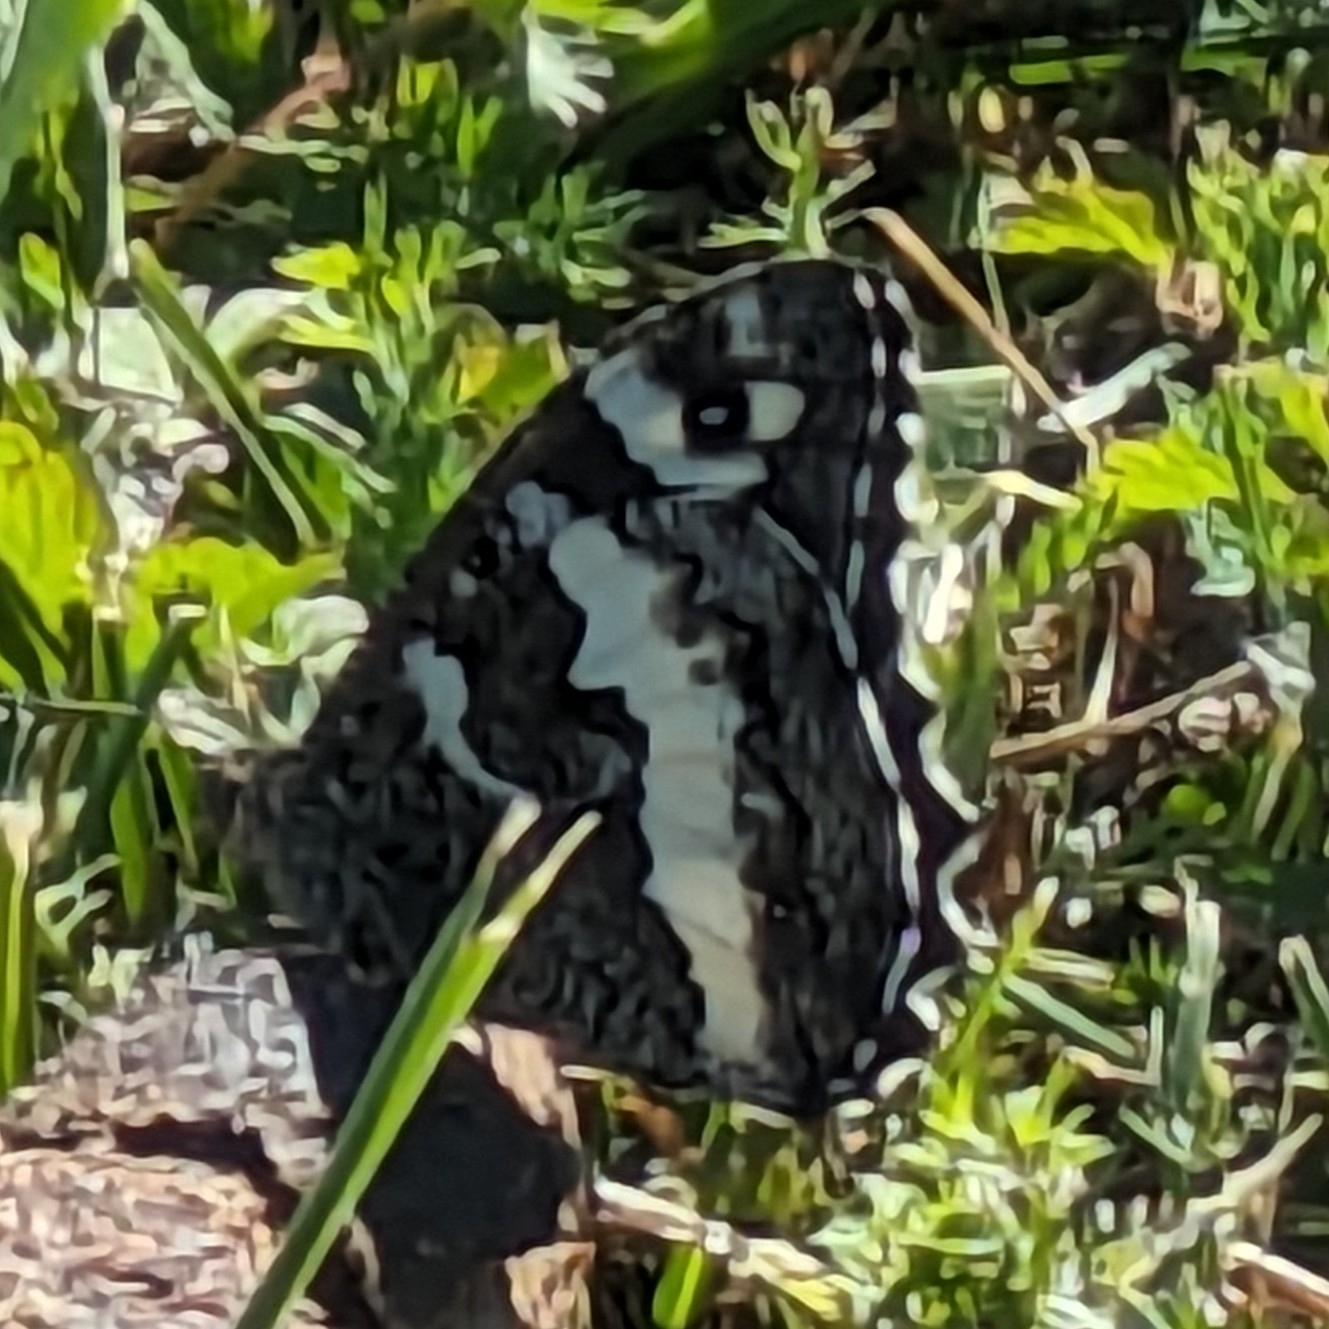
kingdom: Animalia
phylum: Arthropoda
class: Insecta
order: Lepidoptera
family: Lycaenidae
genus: Loweia
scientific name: Loweia tityrus
